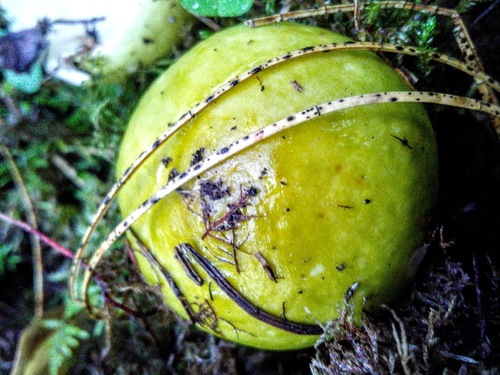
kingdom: Fungi
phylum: Basidiomycota
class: Agaricomycetes
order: Russulales
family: Russulaceae
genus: Russula
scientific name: Russula
